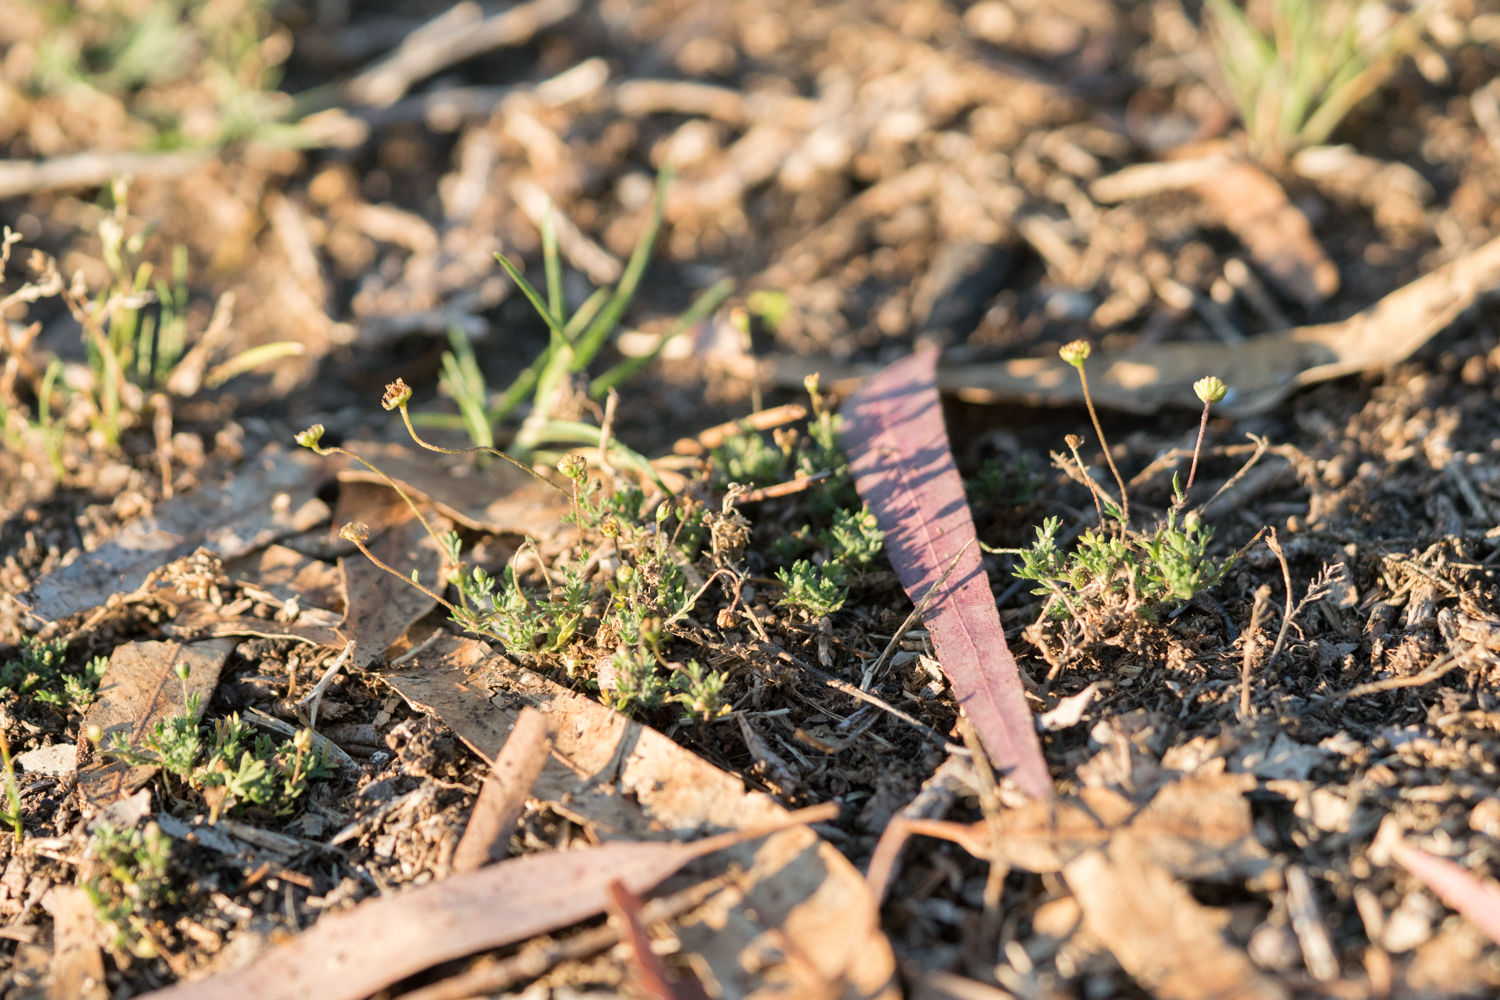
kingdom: Plantae
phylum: Tracheophyta
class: Magnoliopsida
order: Asterales
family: Asteraceae
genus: Cotula
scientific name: Cotula australis
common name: Australian waterbuttons
